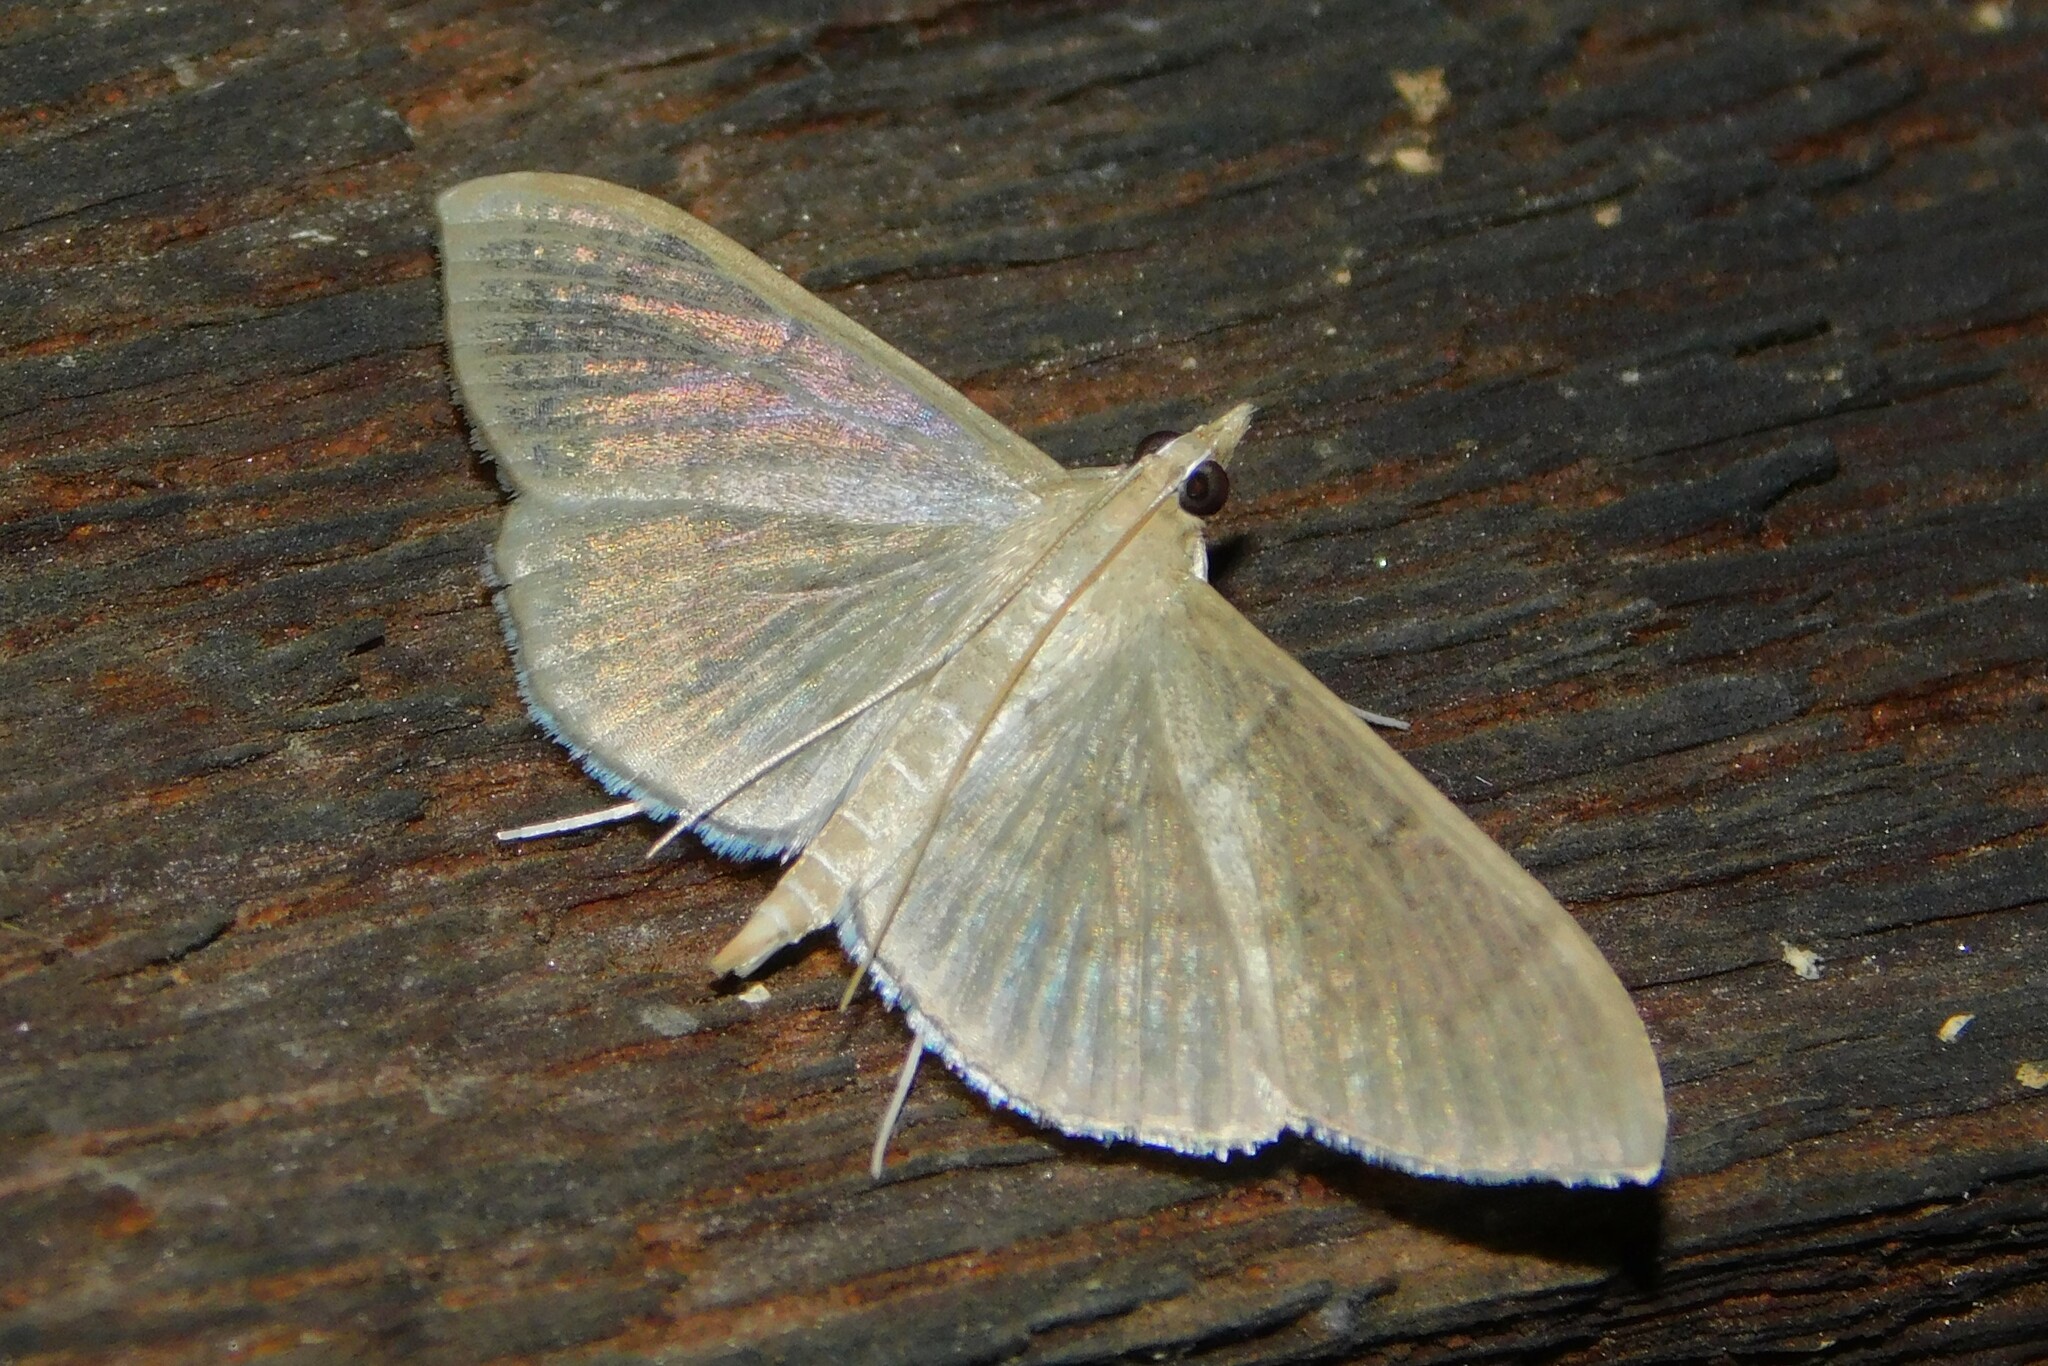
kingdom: Animalia
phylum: Arthropoda
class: Insecta
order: Lepidoptera
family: Crambidae
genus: Lamprophaia
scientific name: Lamprophaia ablactalis
